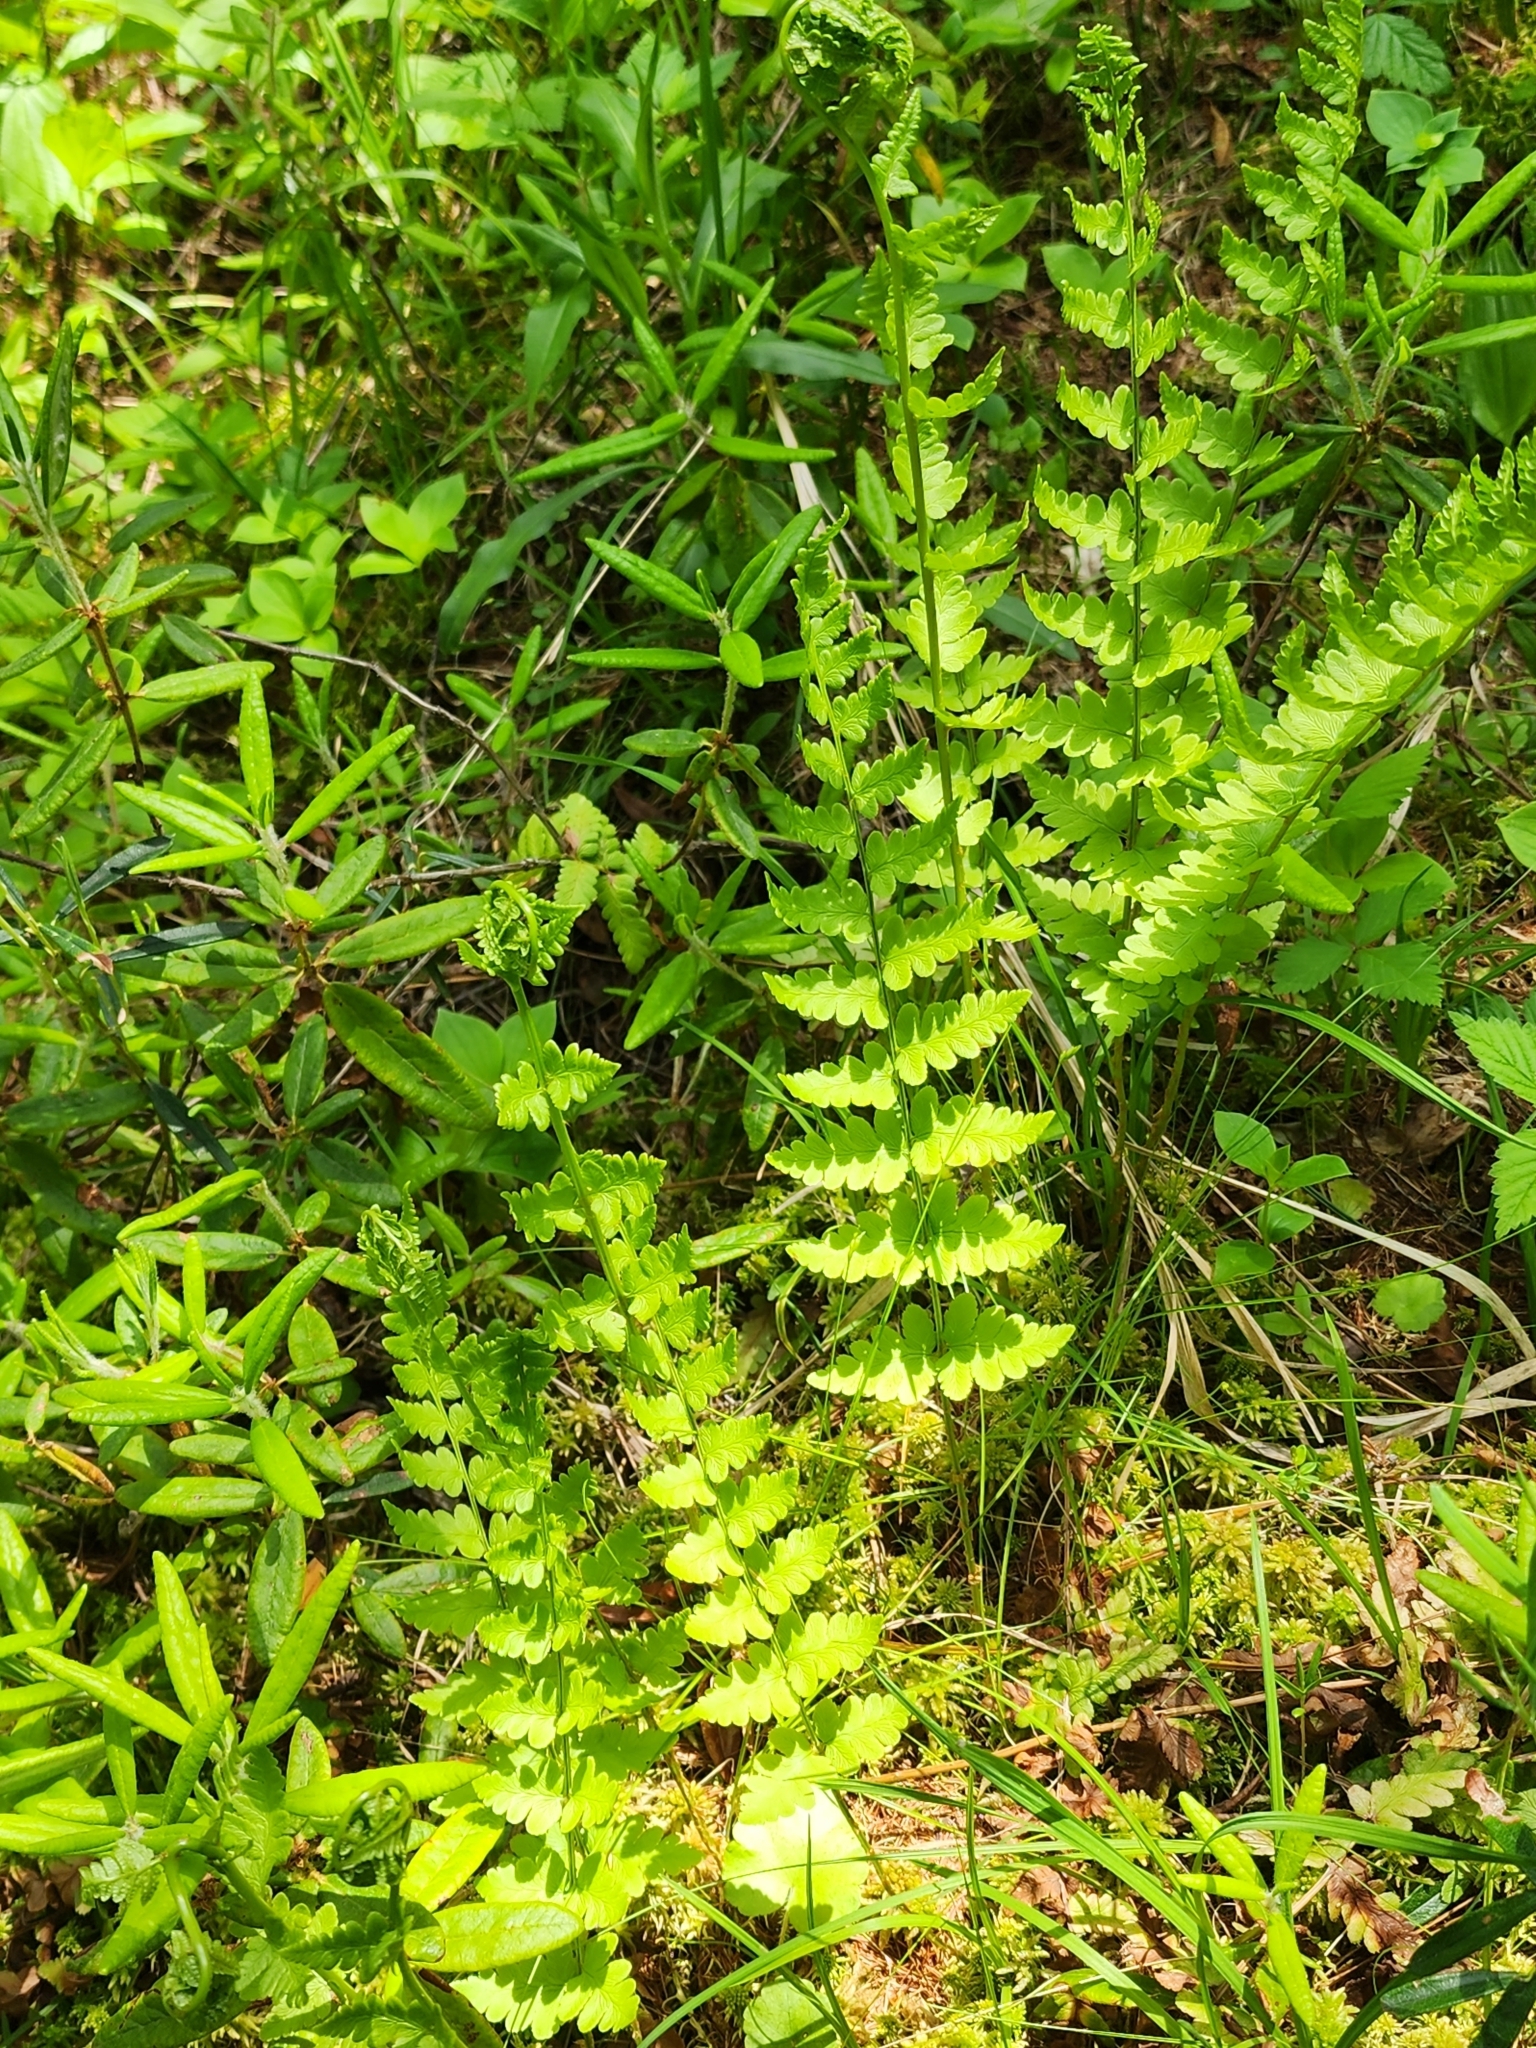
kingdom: Plantae
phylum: Tracheophyta
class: Polypodiopsida
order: Polypodiales
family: Dryopteridaceae
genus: Dryopteris
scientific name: Dryopteris cristata
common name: Crested wood fern
